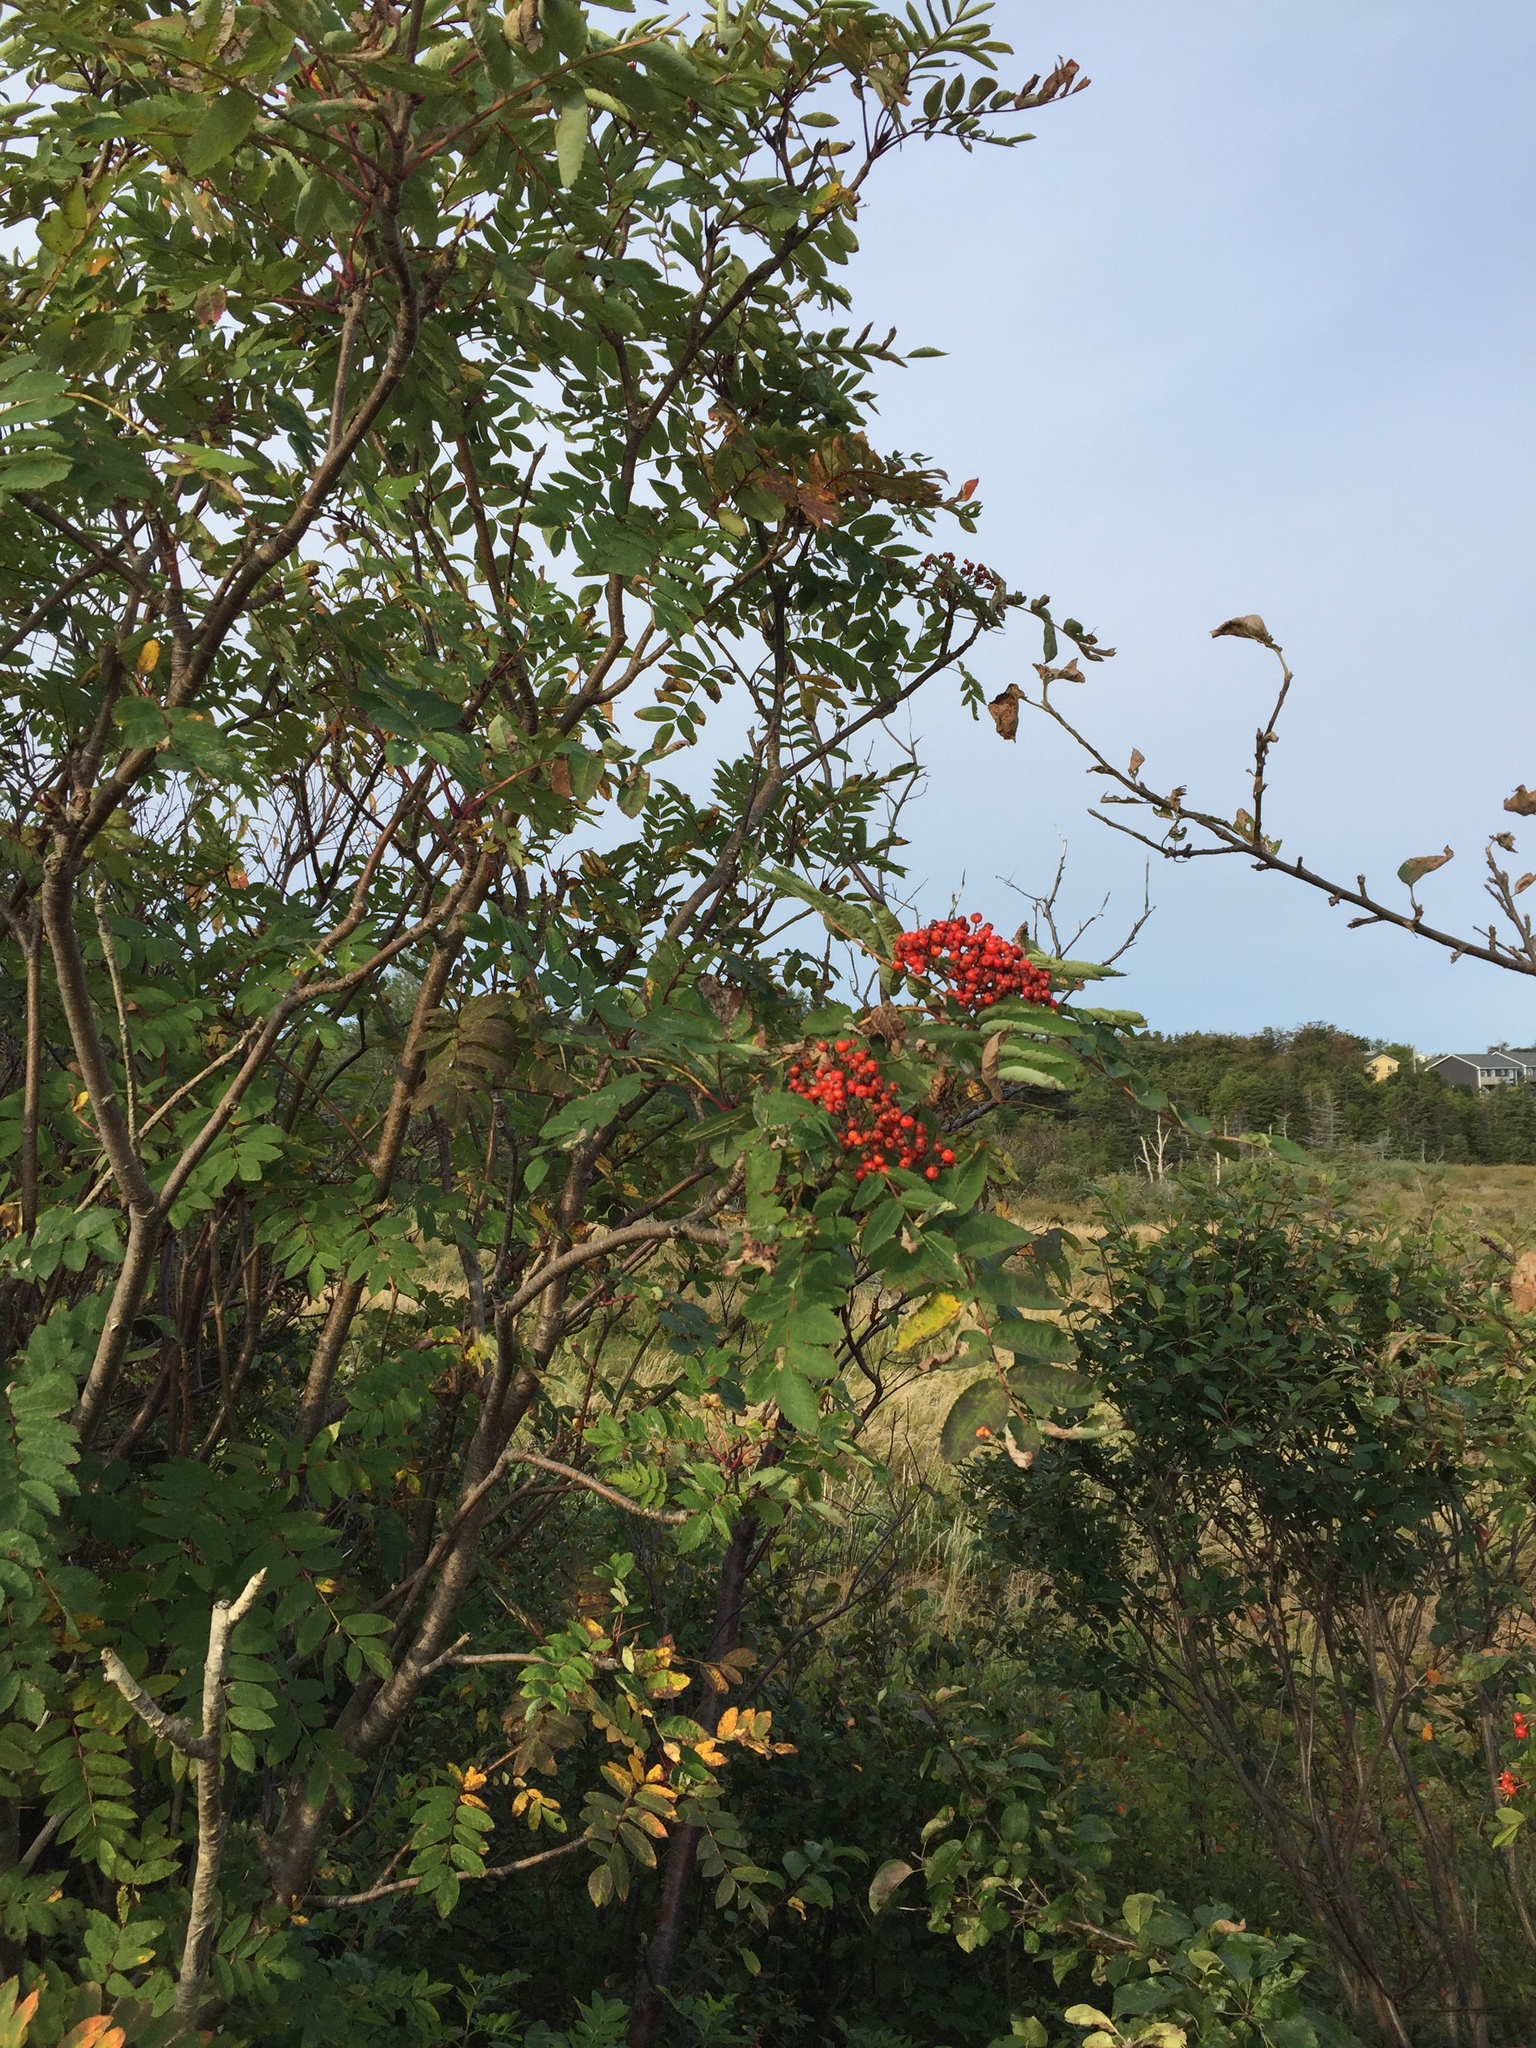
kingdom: Plantae
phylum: Tracheophyta
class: Magnoliopsida
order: Rosales
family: Rosaceae
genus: Sorbus
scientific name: Sorbus aucuparia
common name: Rowan
